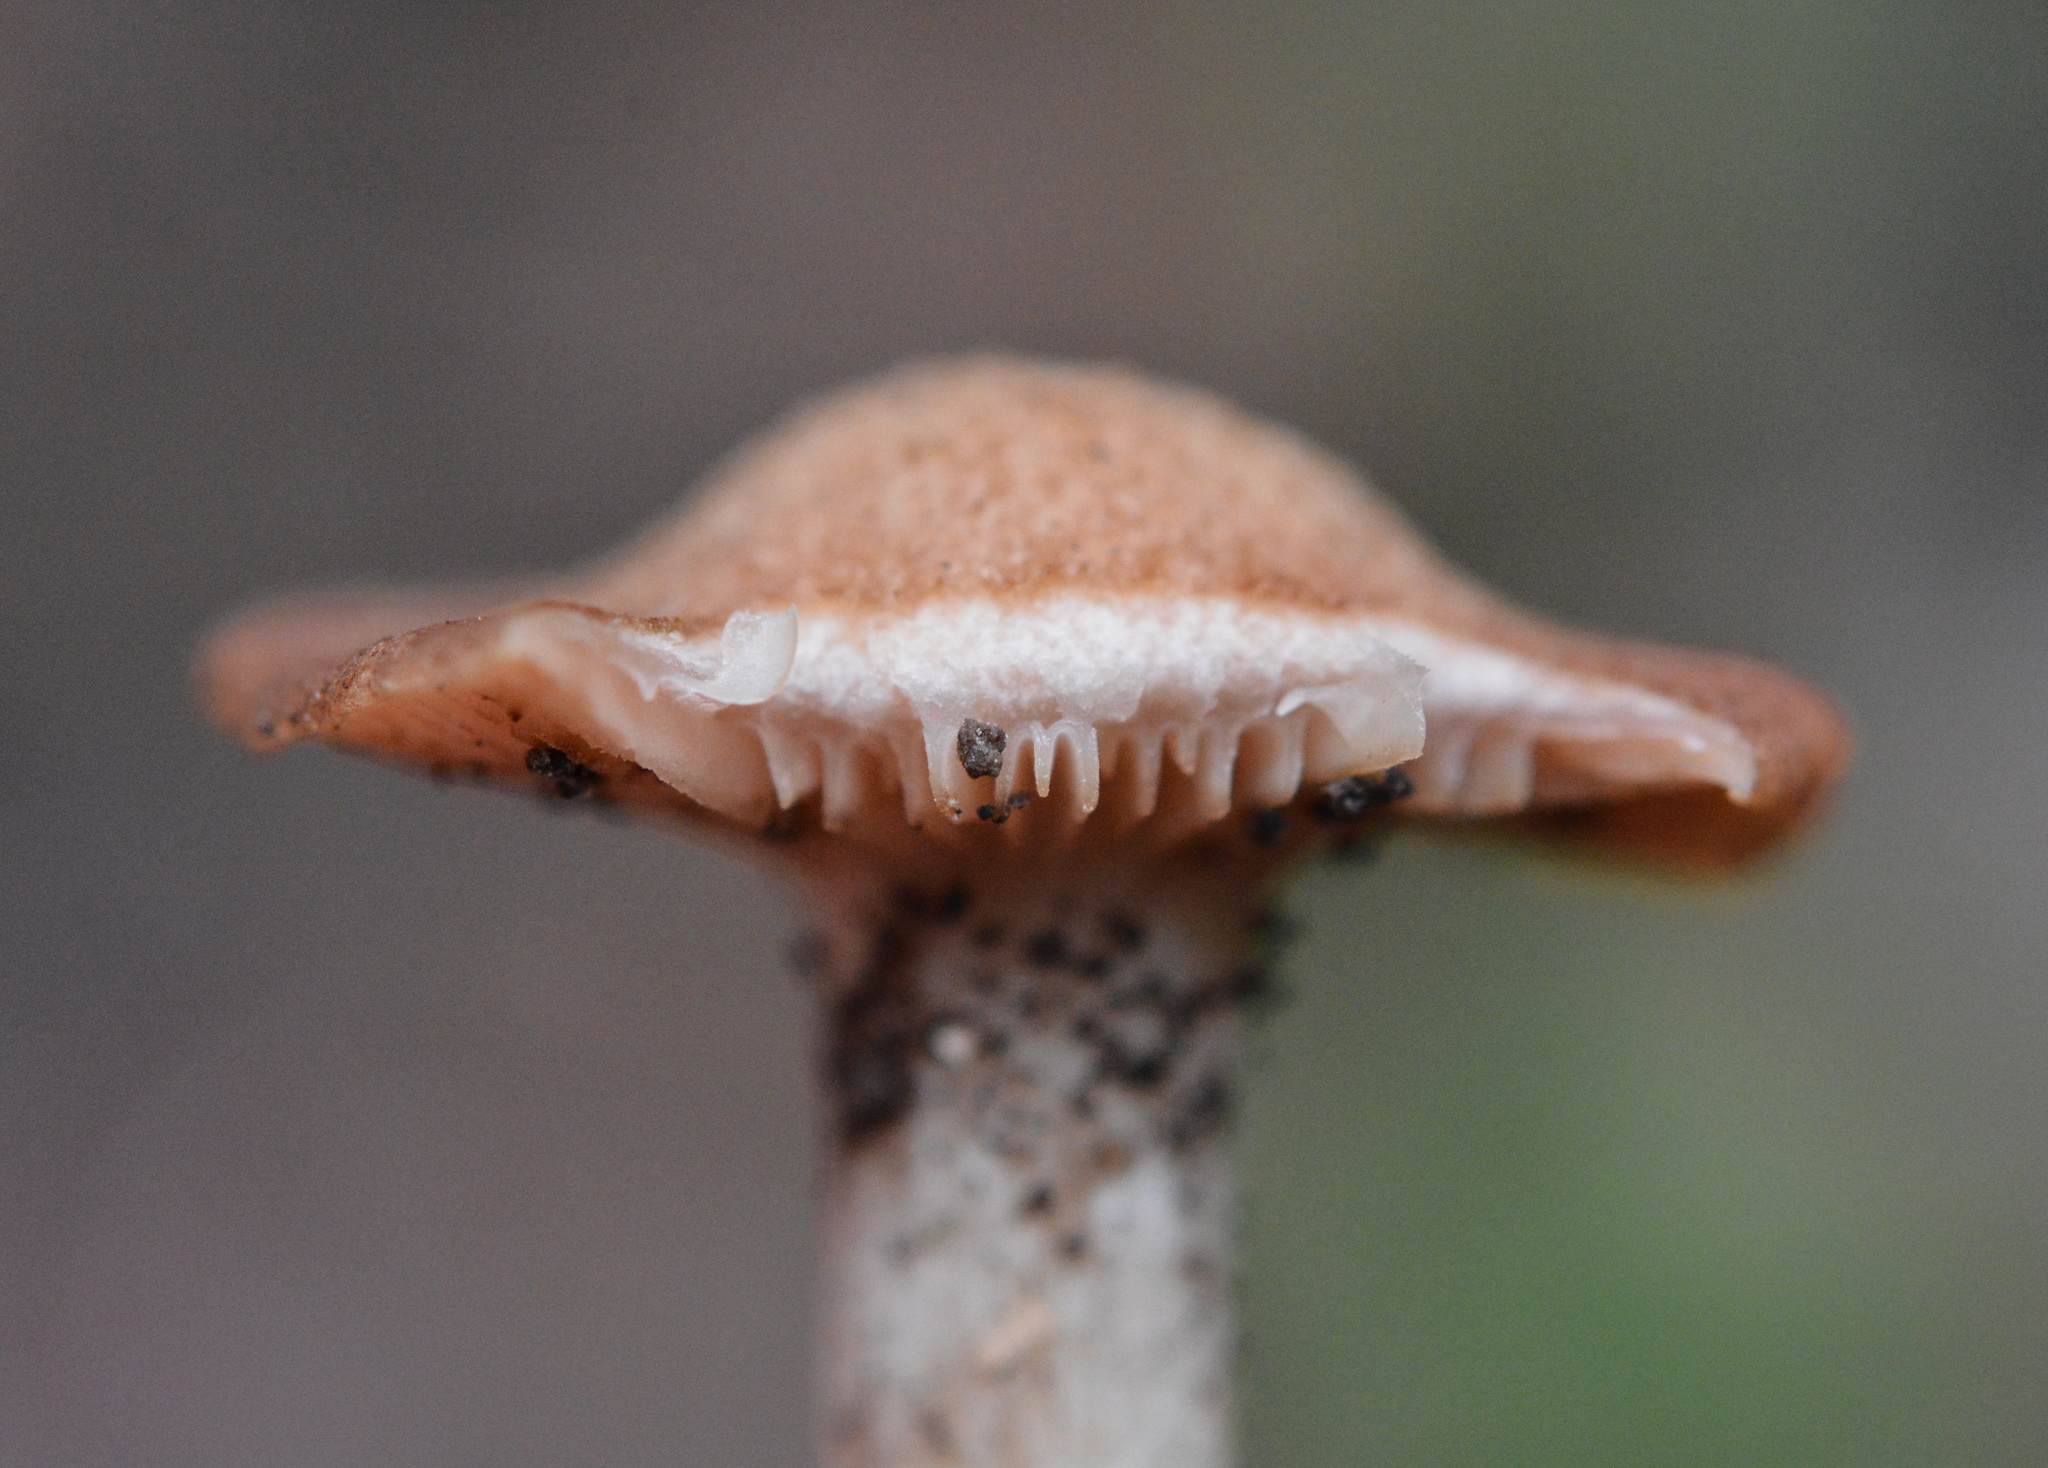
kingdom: Fungi
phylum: Basidiomycota
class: Agaricomycetes
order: Agaricales
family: Physalacriaceae
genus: Desarmillaria
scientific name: Desarmillaria caespitosa
